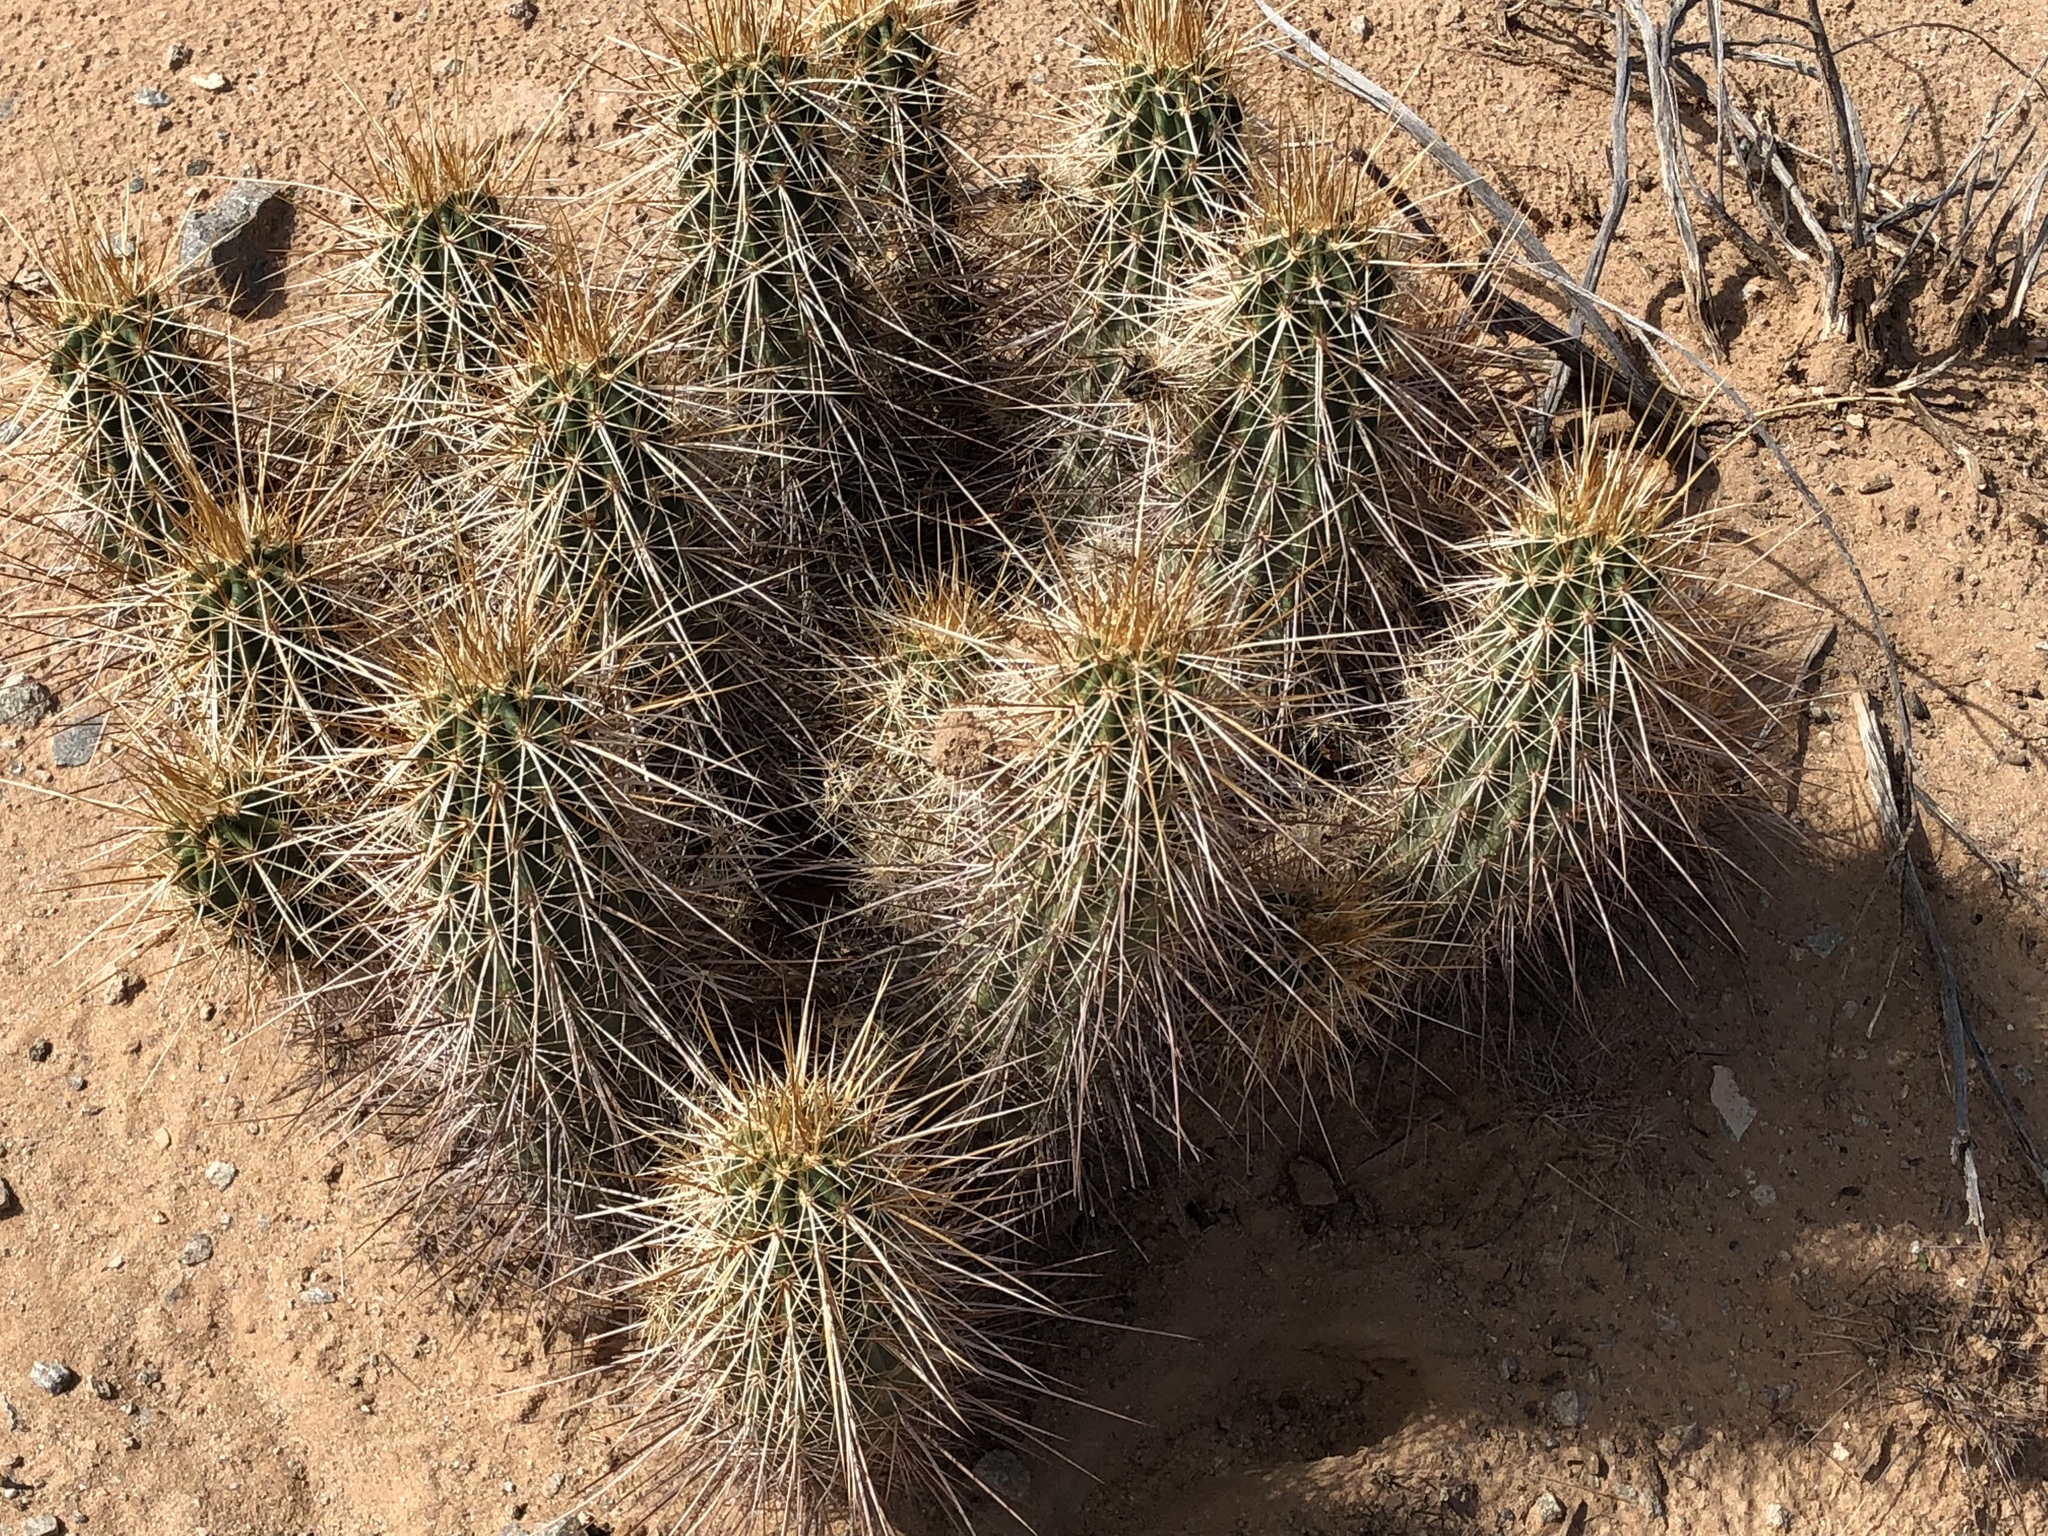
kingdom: Plantae
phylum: Tracheophyta
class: Magnoliopsida
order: Caryophyllales
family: Cactaceae
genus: Echinocereus
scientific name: Echinocereus engelmannii
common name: Engelmann's hedgehog cactus
